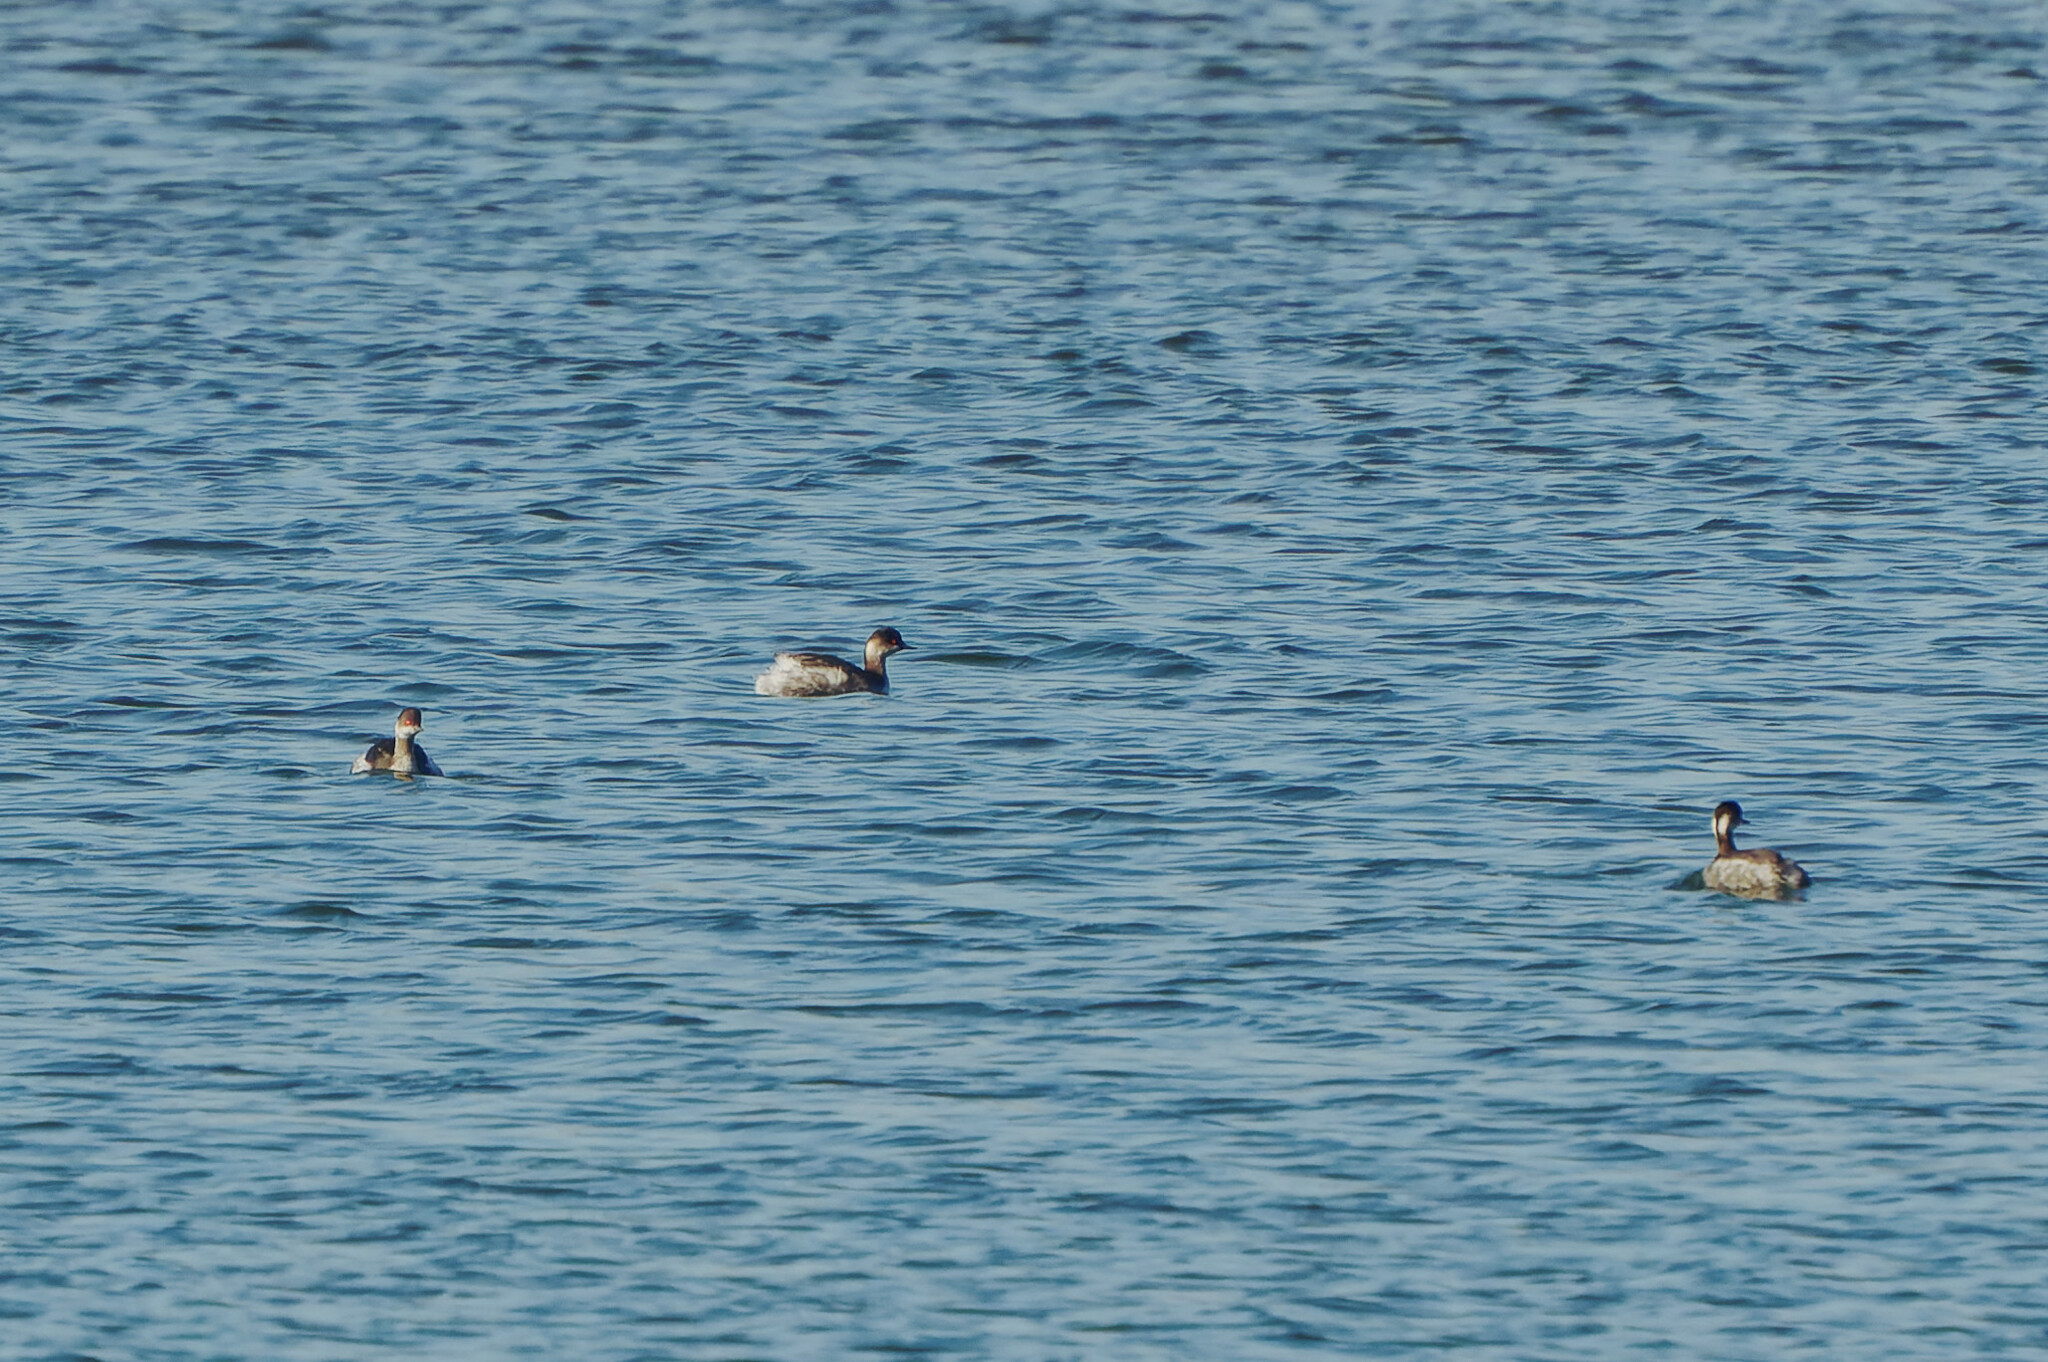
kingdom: Animalia
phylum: Chordata
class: Aves
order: Podicipediformes
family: Podicipedidae
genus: Podiceps
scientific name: Podiceps nigricollis
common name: Black-necked grebe
